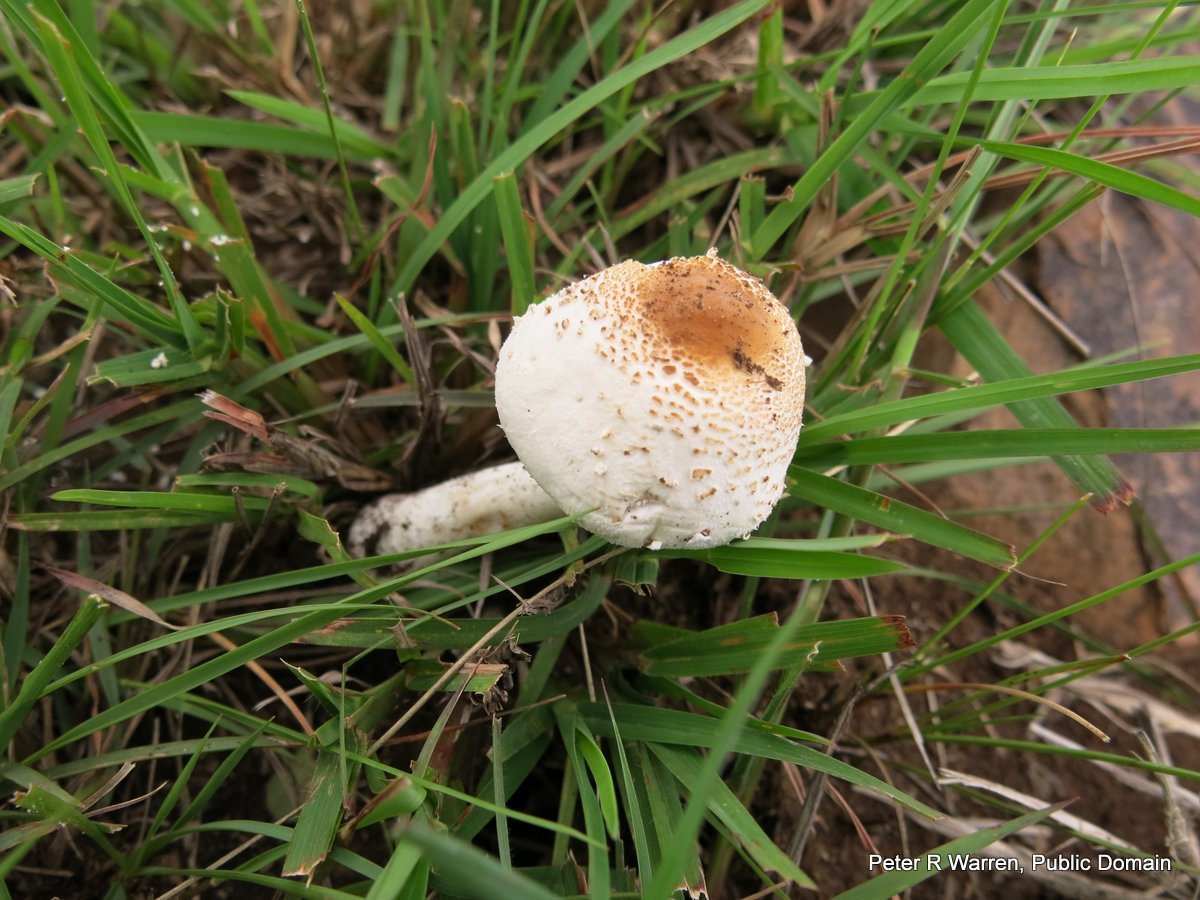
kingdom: Fungi
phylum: Basidiomycota
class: Agaricomycetes
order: Agaricales
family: Agaricaceae
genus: Macrolepiota
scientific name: Macrolepiota zeyheri
